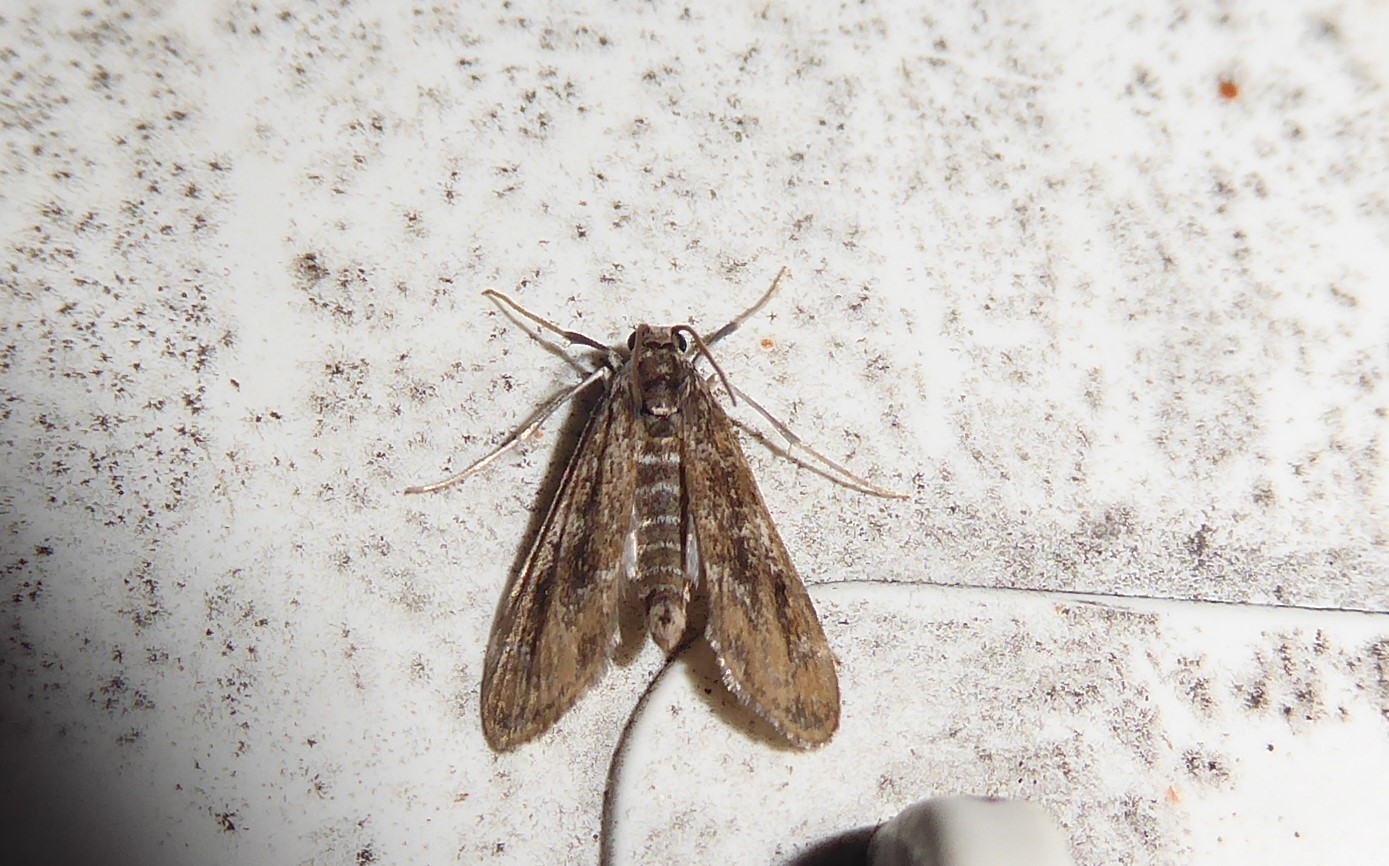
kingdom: Animalia
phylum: Arthropoda
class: Insecta
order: Lepidoptera
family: Crambidae
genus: Hygraula
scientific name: Hygraula nitens
